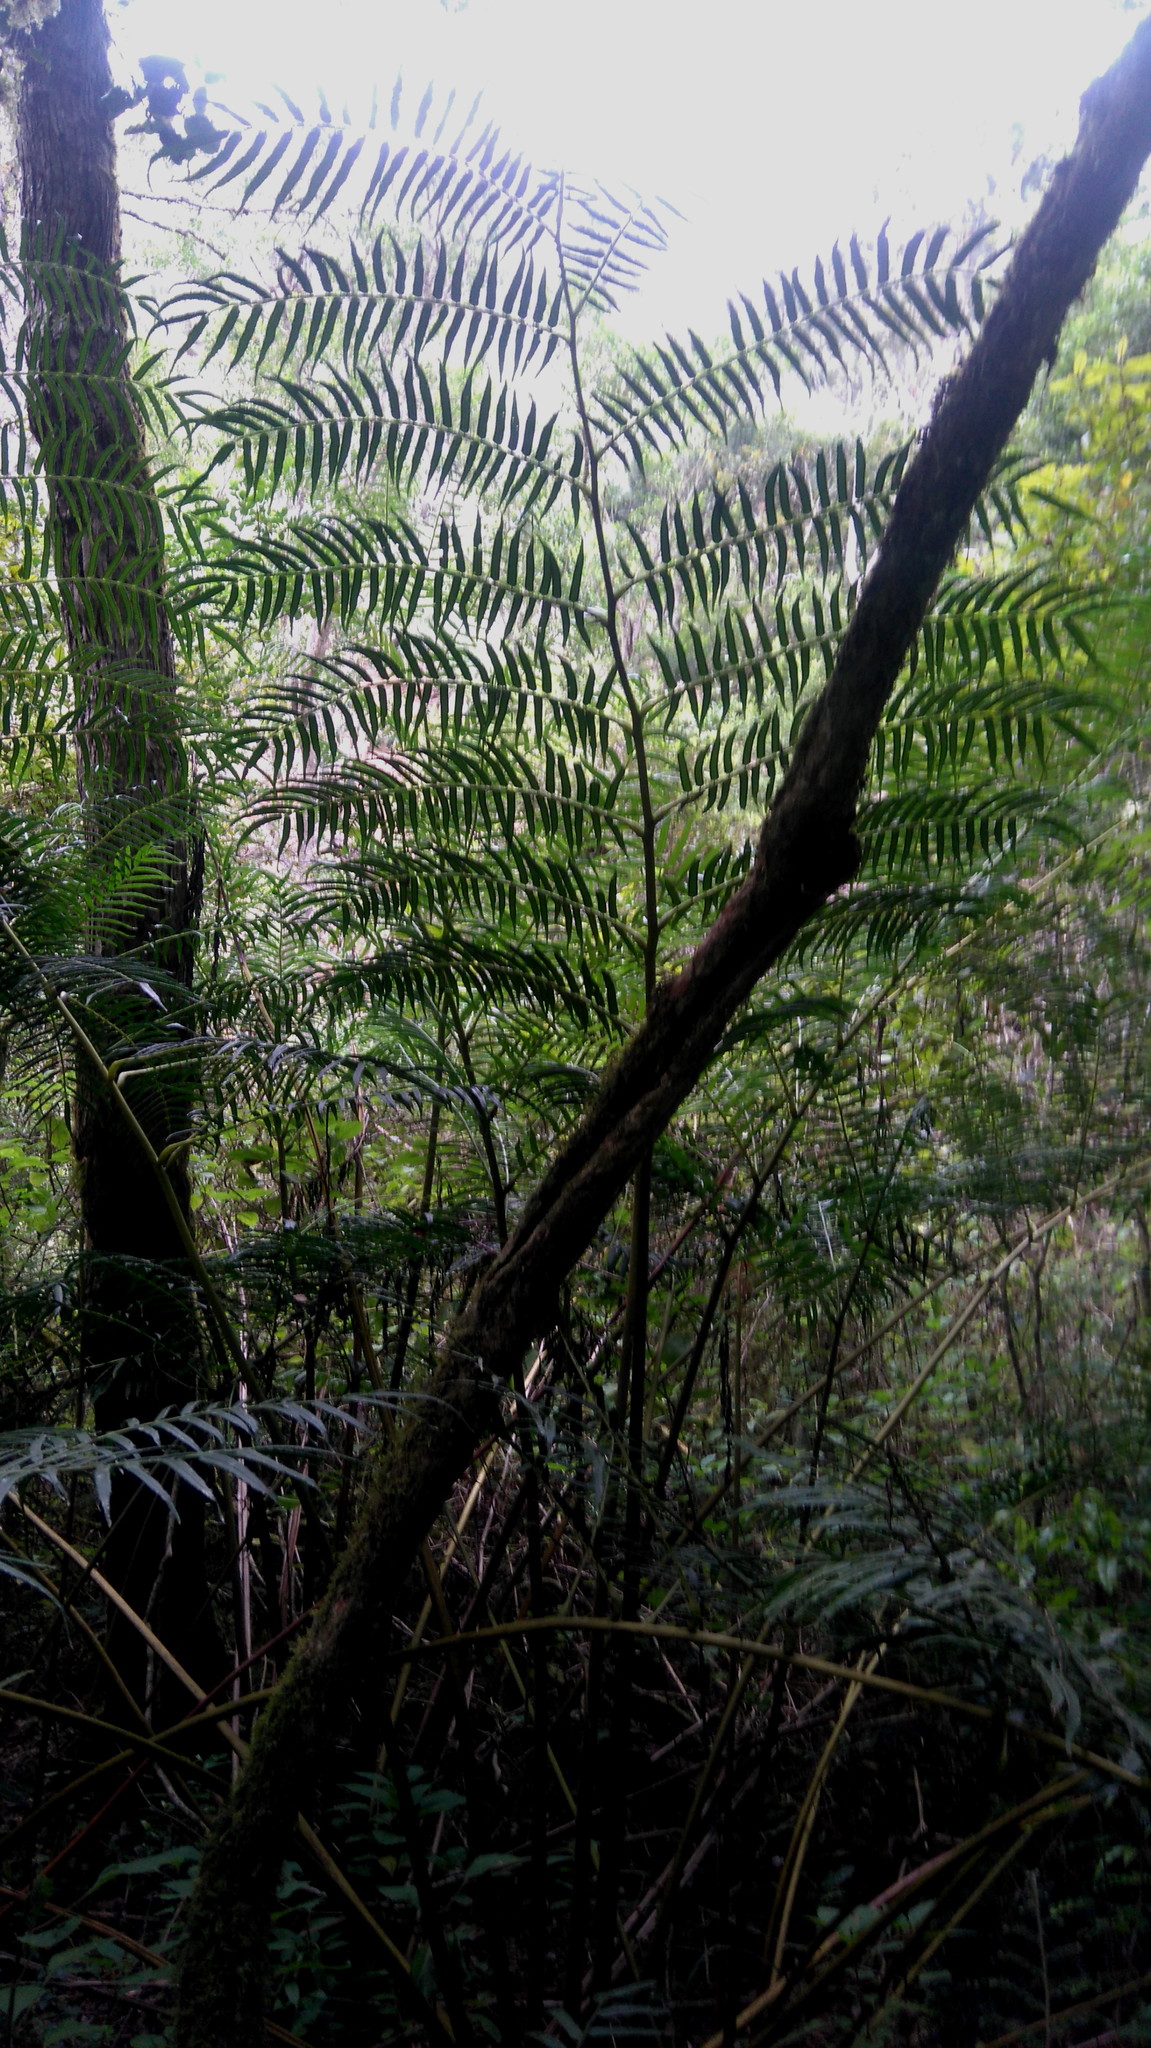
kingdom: Plantae
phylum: Tracheophyta
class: Polypodiopsida
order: Marattiales
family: Marattiaceae
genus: Ptisana
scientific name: Ptisana fraxinea
